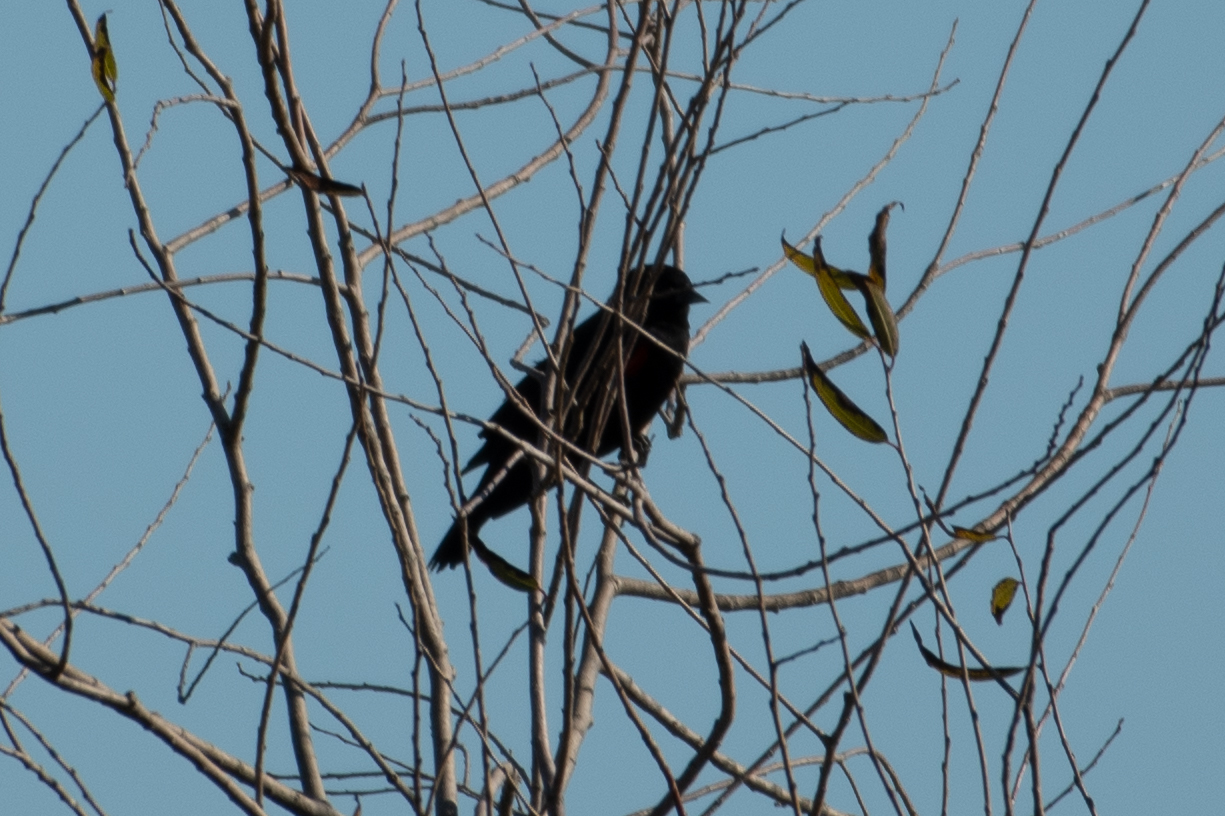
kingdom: Animalia
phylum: Chordata
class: Aves
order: Passeriformes
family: Icteridae
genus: Agelaius
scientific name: Agelaius phoeniceus
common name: Red-winged blackbird
